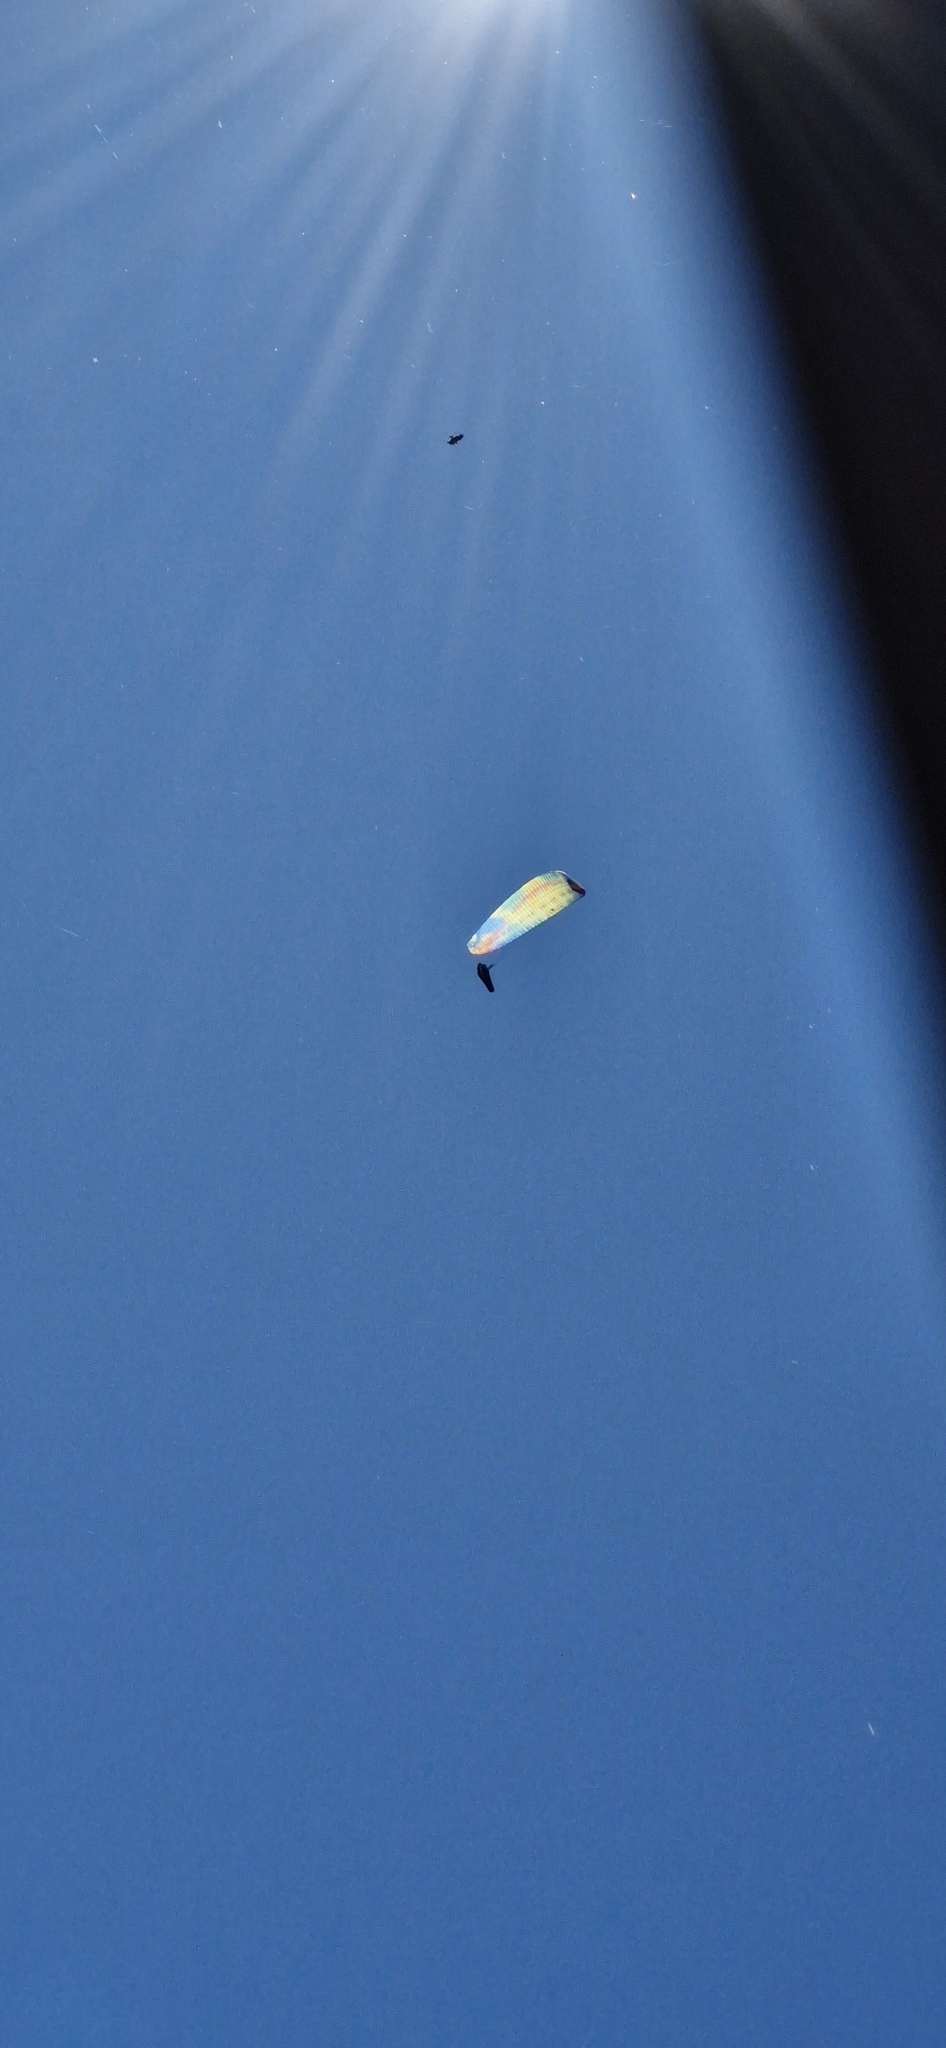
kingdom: Animalia
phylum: Chordata
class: Aves
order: Accipitriformes
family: Accipitridae
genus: Aquila
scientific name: Aquila audax
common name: Wedge-tailed eagle
